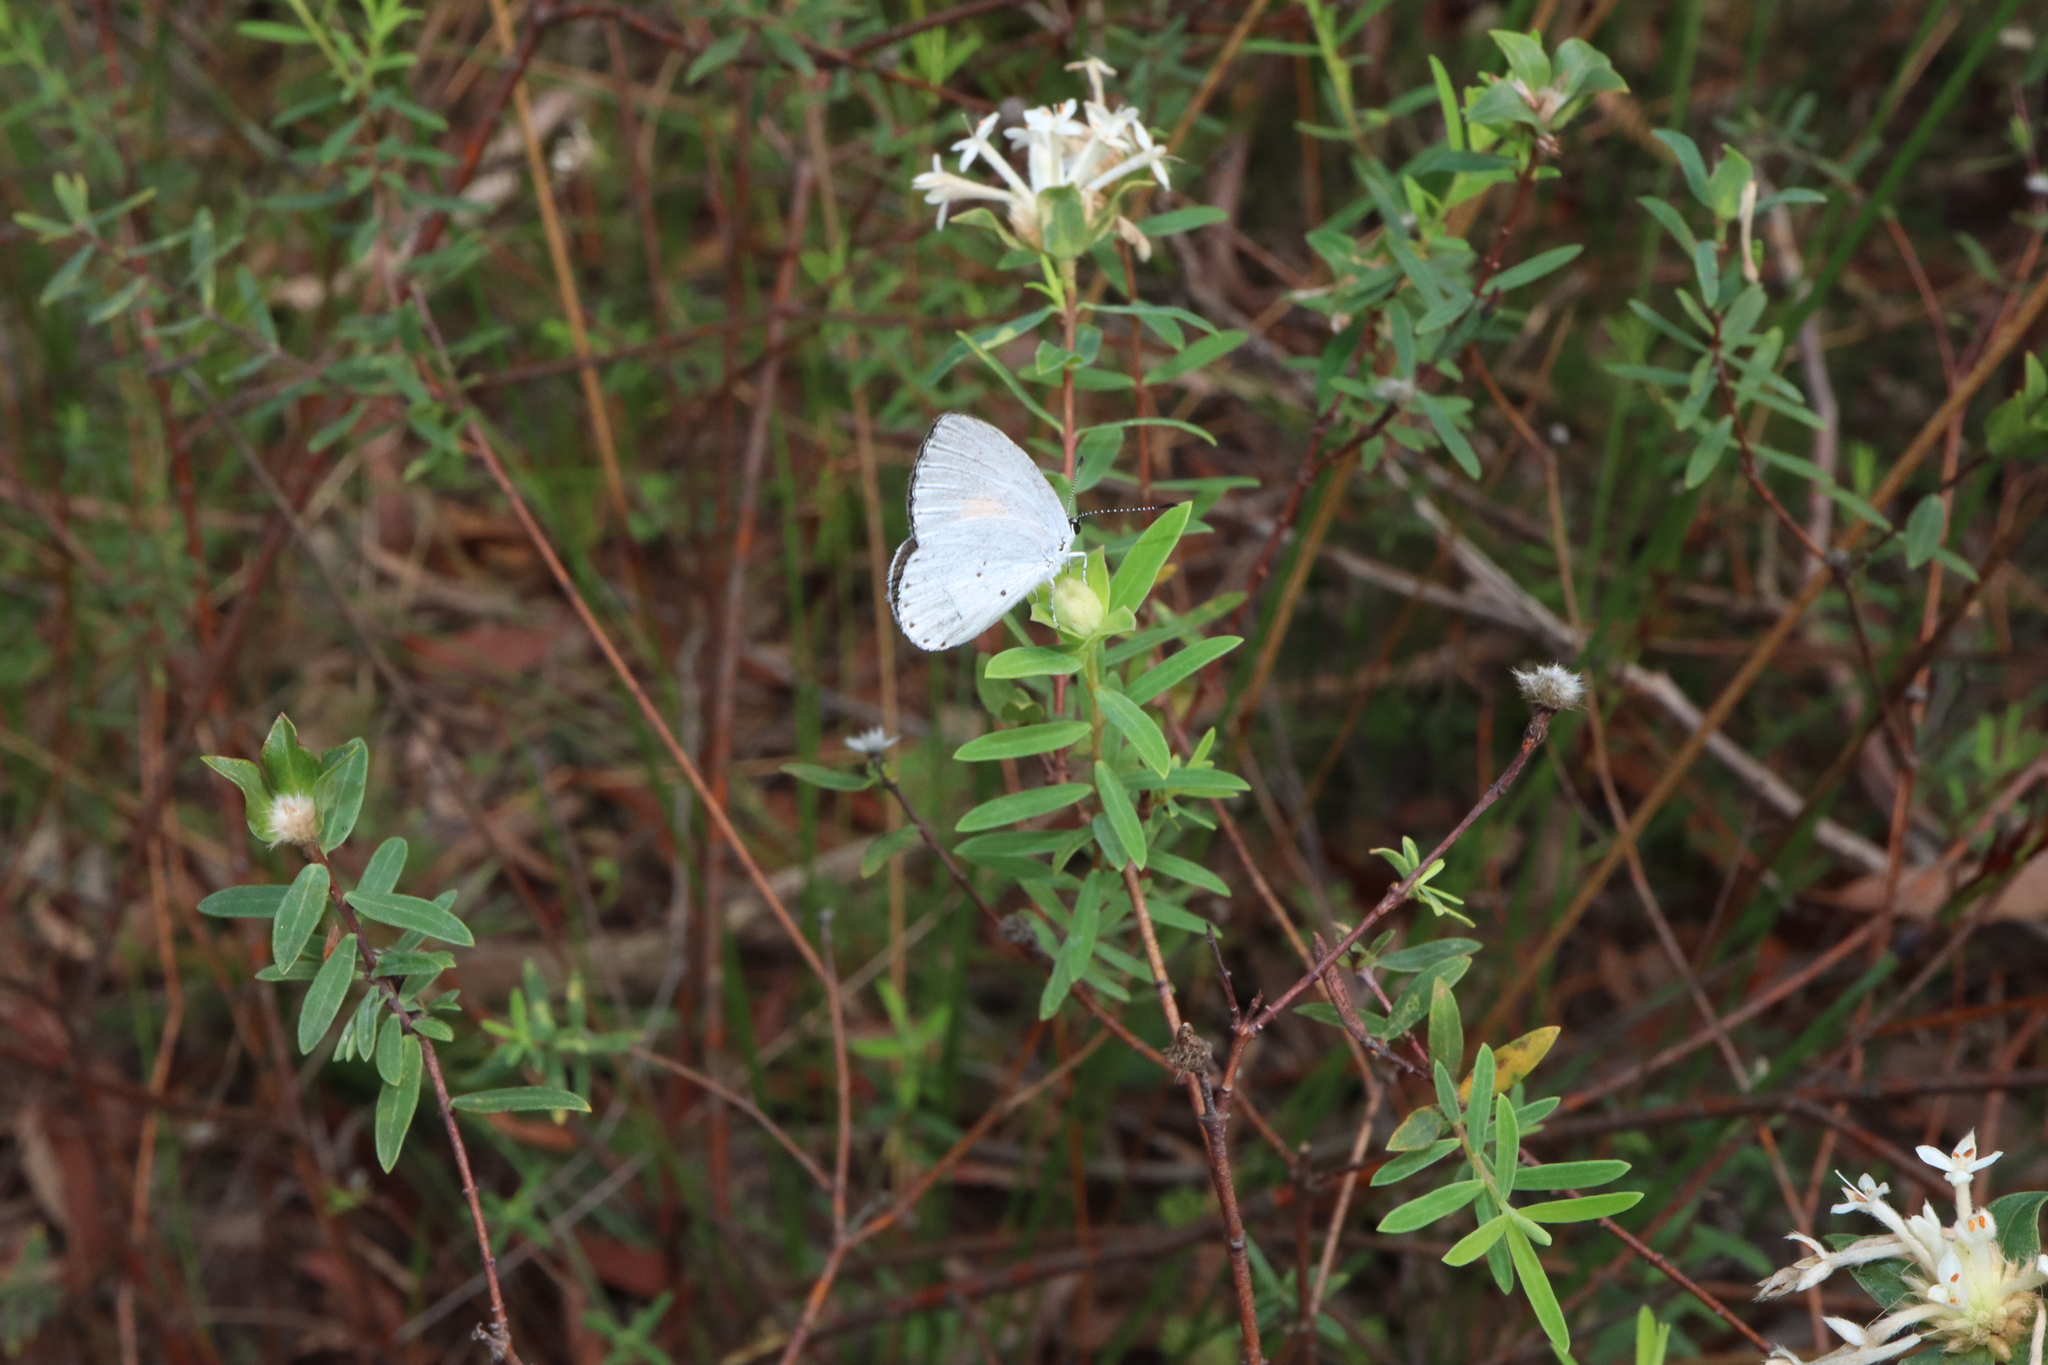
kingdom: Animalia
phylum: Arthropoda
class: Insecta
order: Lepidoptera
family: Lycaenidae
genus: Candalides
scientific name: Candalides xanthospilos
